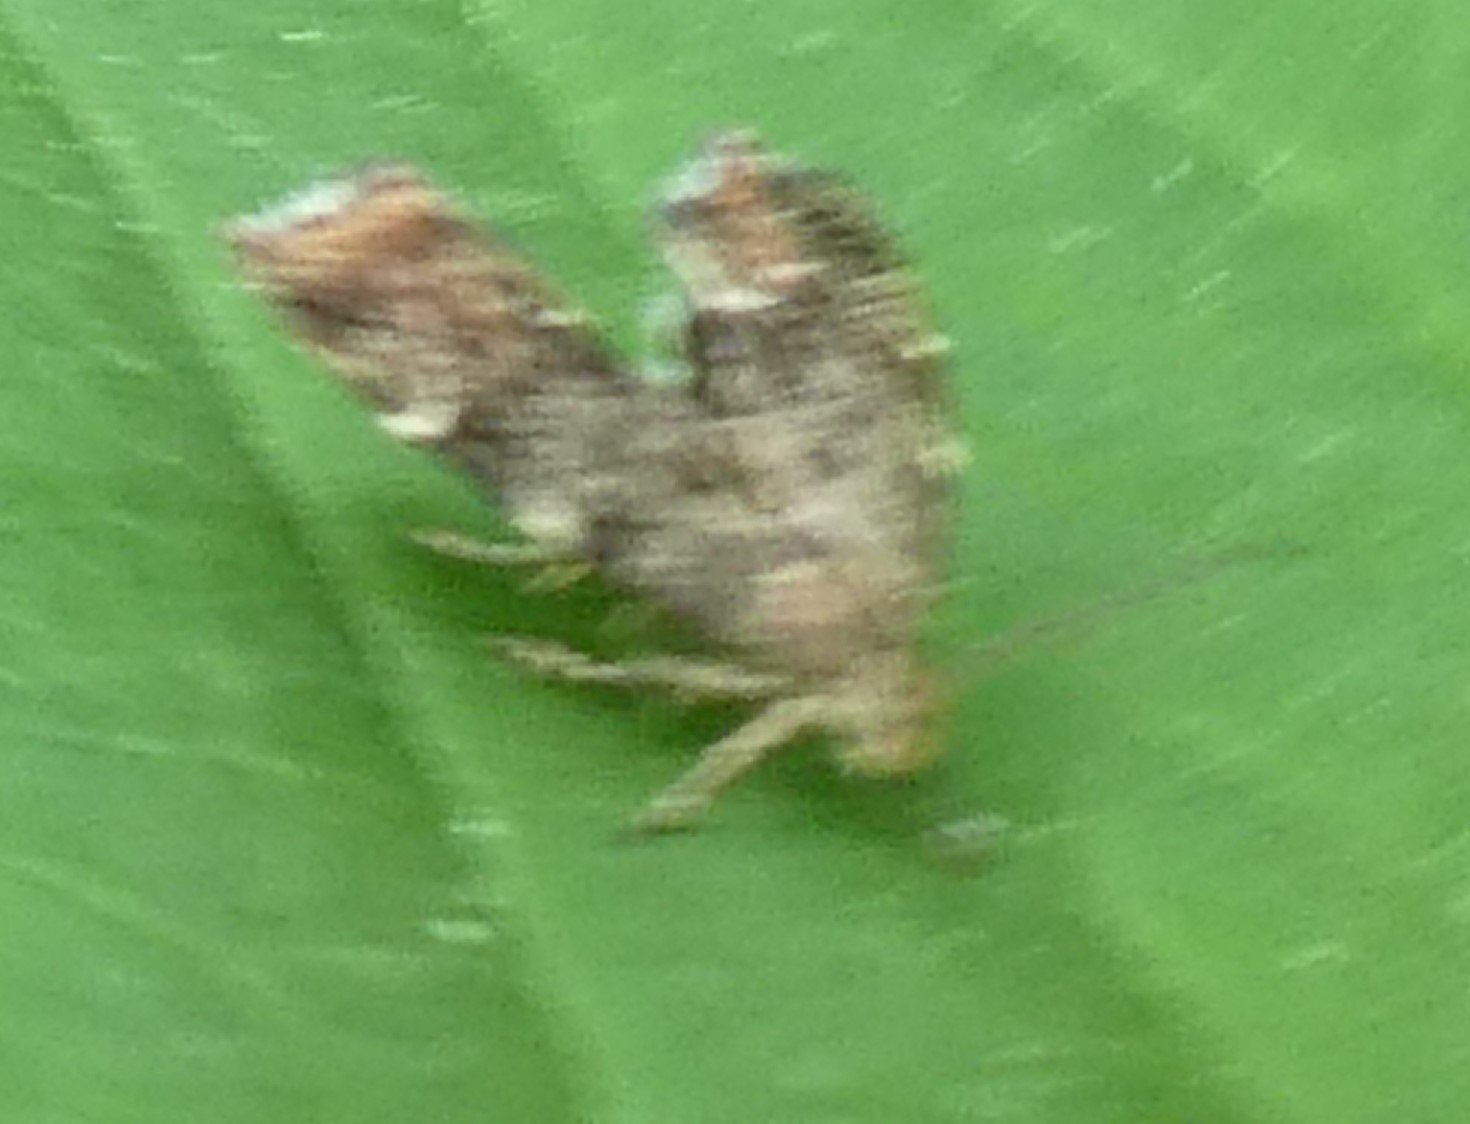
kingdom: Animalia
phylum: Arthropoda
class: Insecta
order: Lepidoptera
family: Choreutidae
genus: Anthophila
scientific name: Anthophila fabriciana
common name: Nettle-tap
